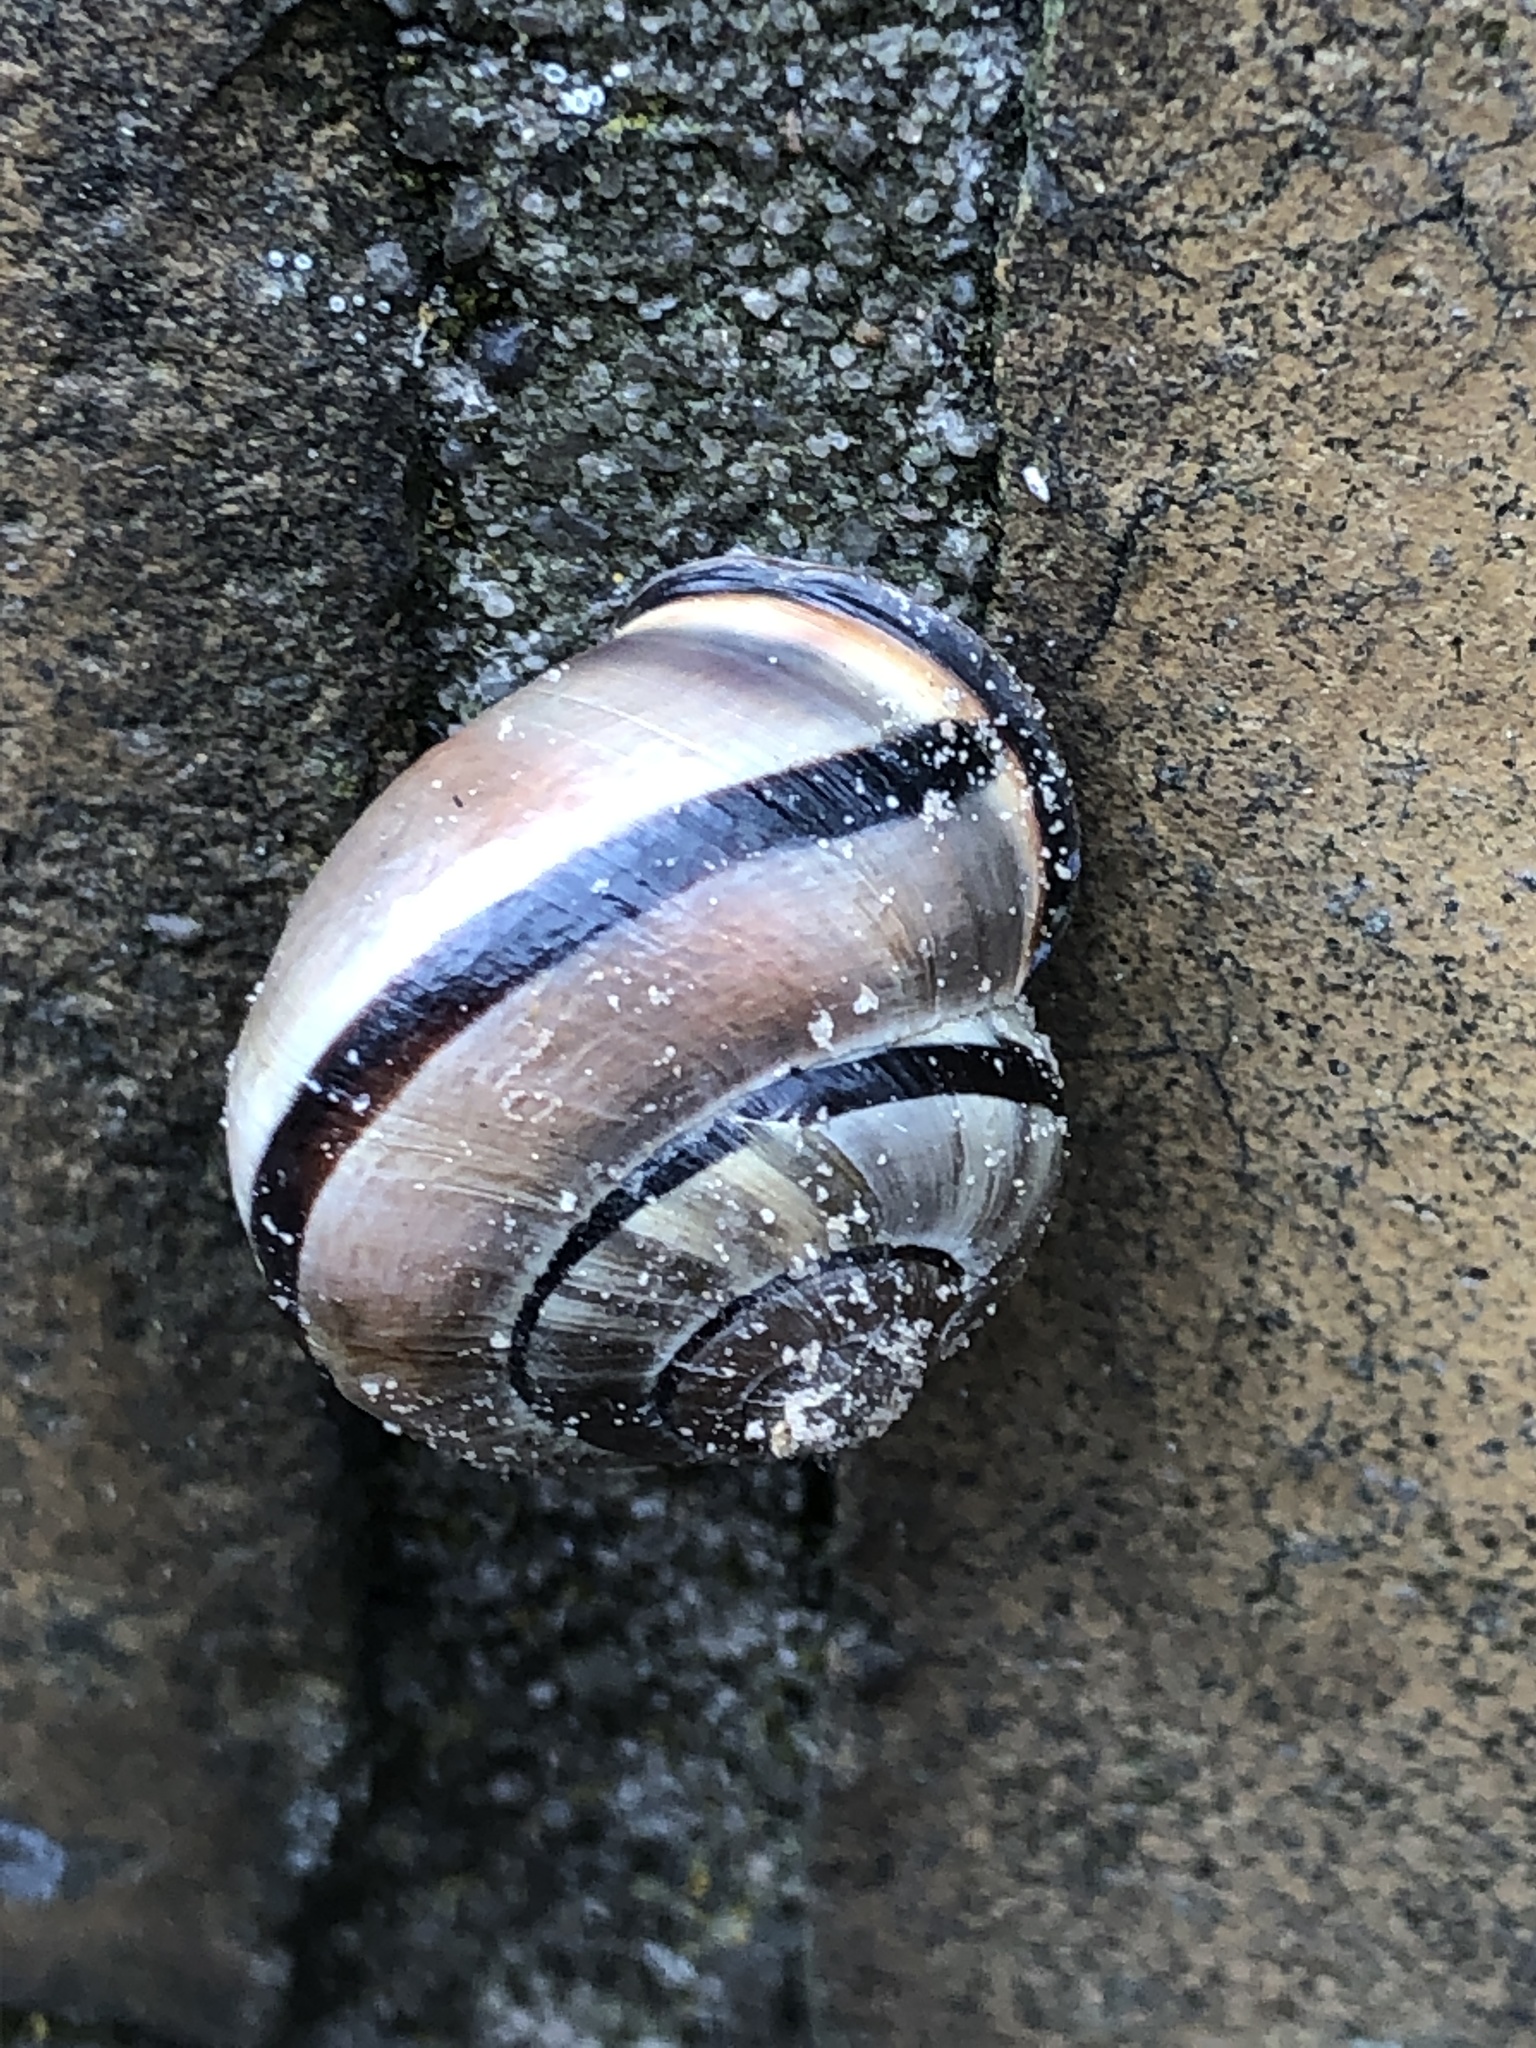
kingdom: Animalia
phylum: Mollusca
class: Gastropoda
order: Stylommatophora
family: Helicidae
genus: Cepaea
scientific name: Cepaea nemoralis
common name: Grovesnail
